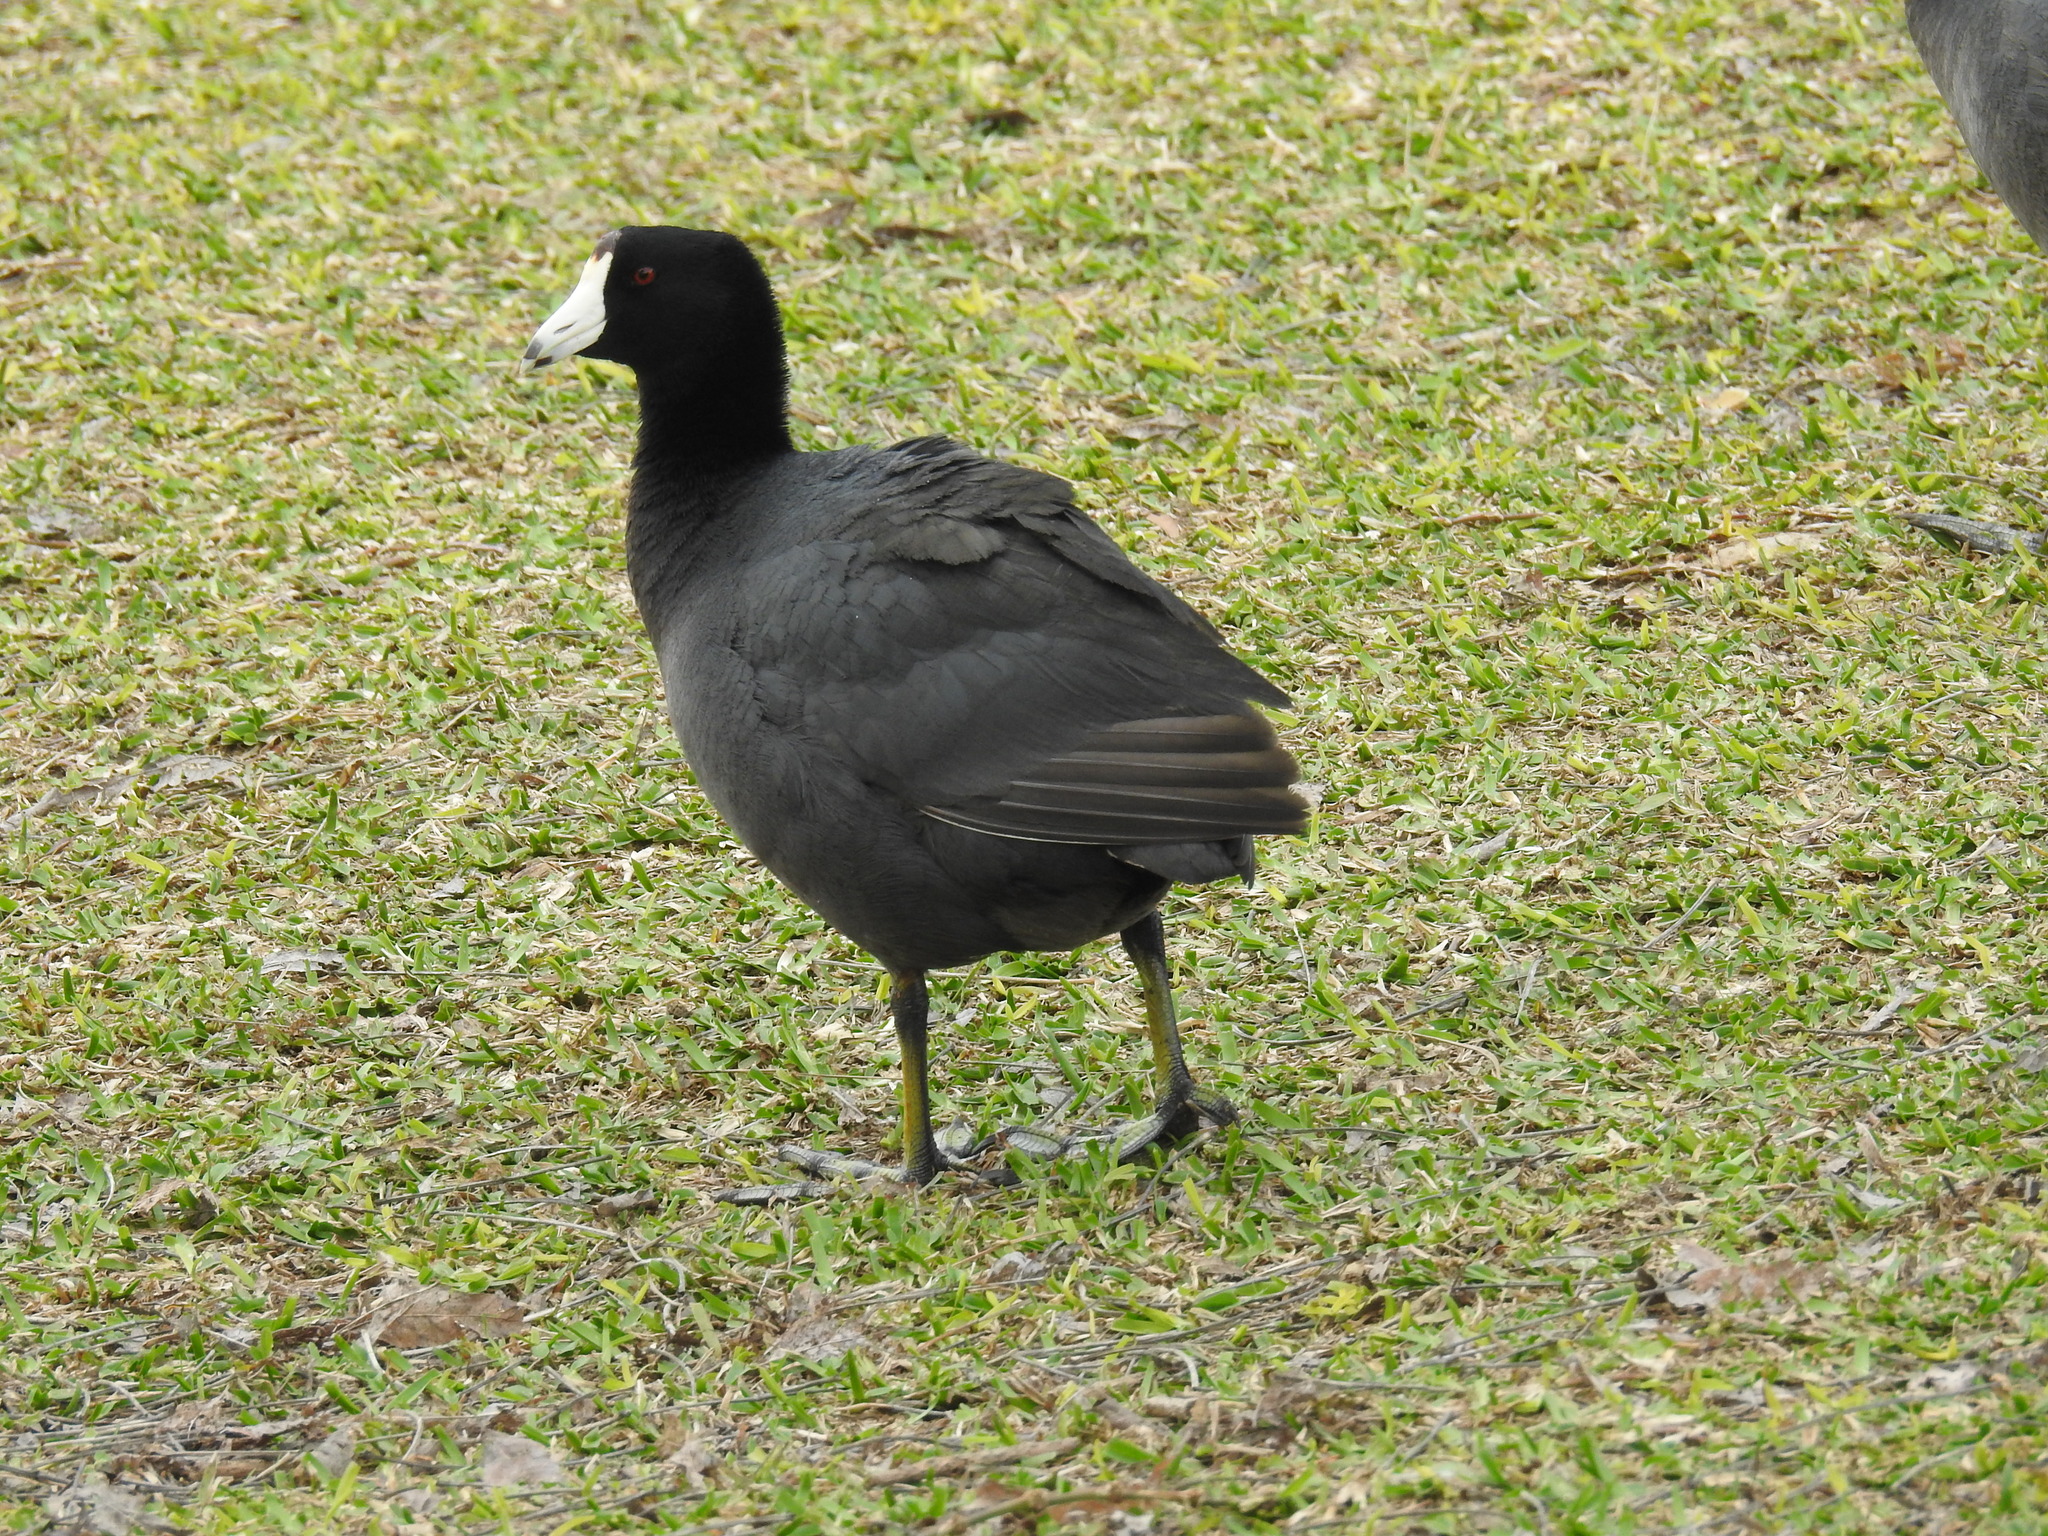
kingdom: Animalia
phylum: Chordata
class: Aves
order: Gruiformes
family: Rallidae
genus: Fulica
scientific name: Fulica americana
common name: American coot
